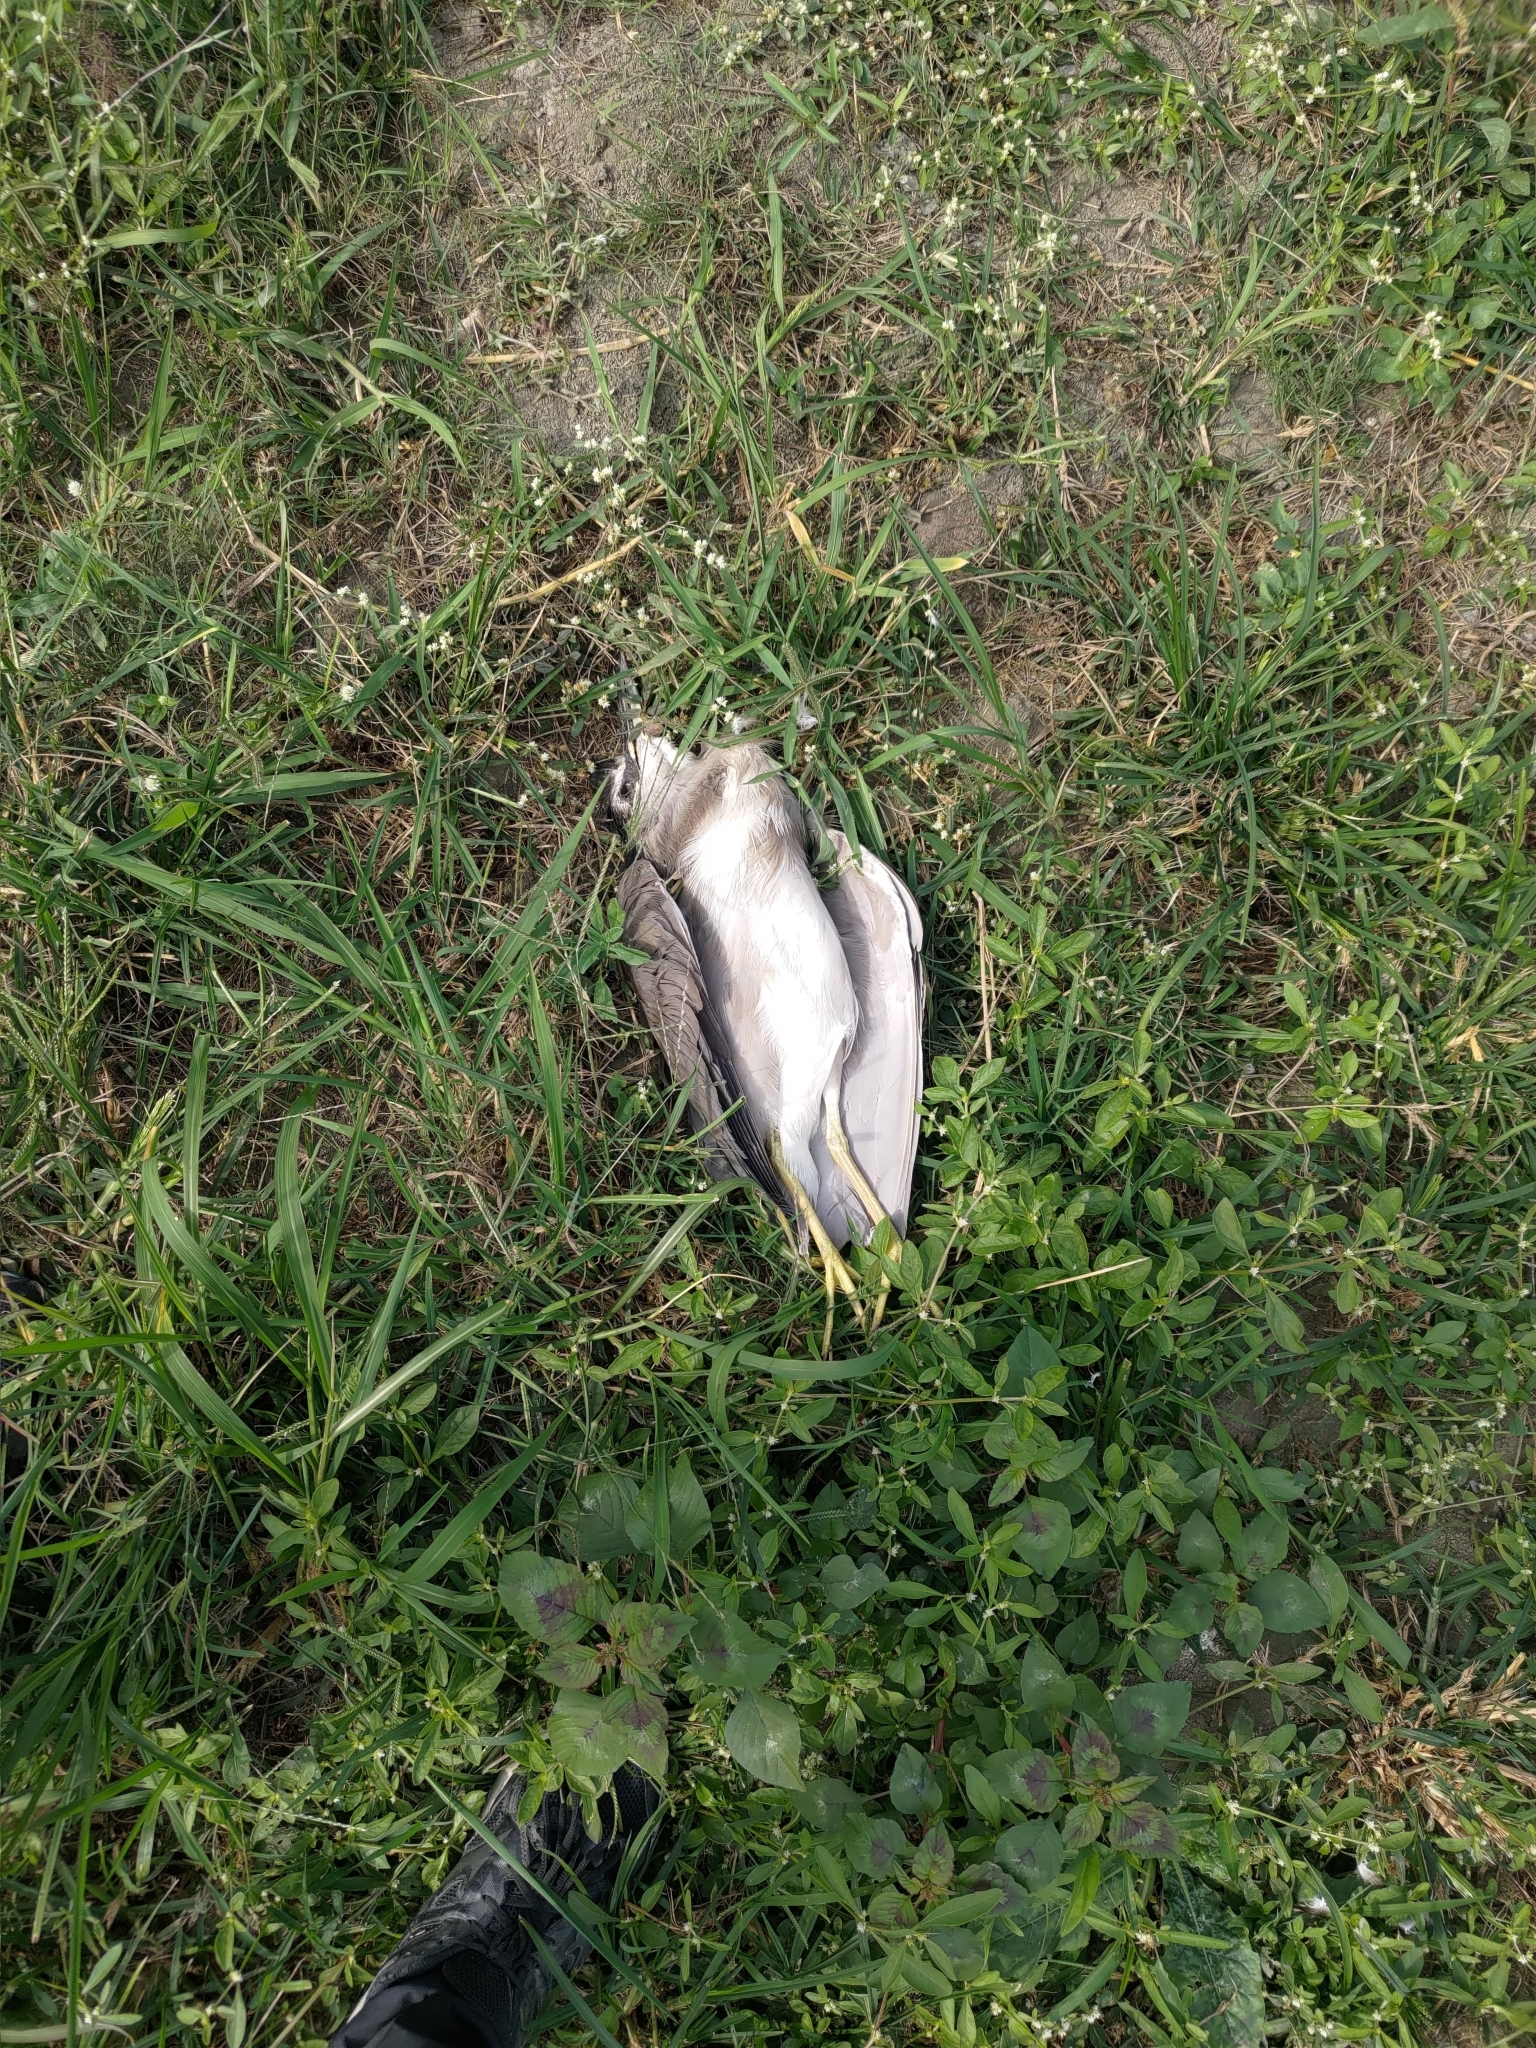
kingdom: Animalia
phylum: Chordata
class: Aves
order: Pelecaniformes
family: Ardeidae
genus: Nycticorax
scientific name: Nycticorax nycticorax
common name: Black-crowned night heron
